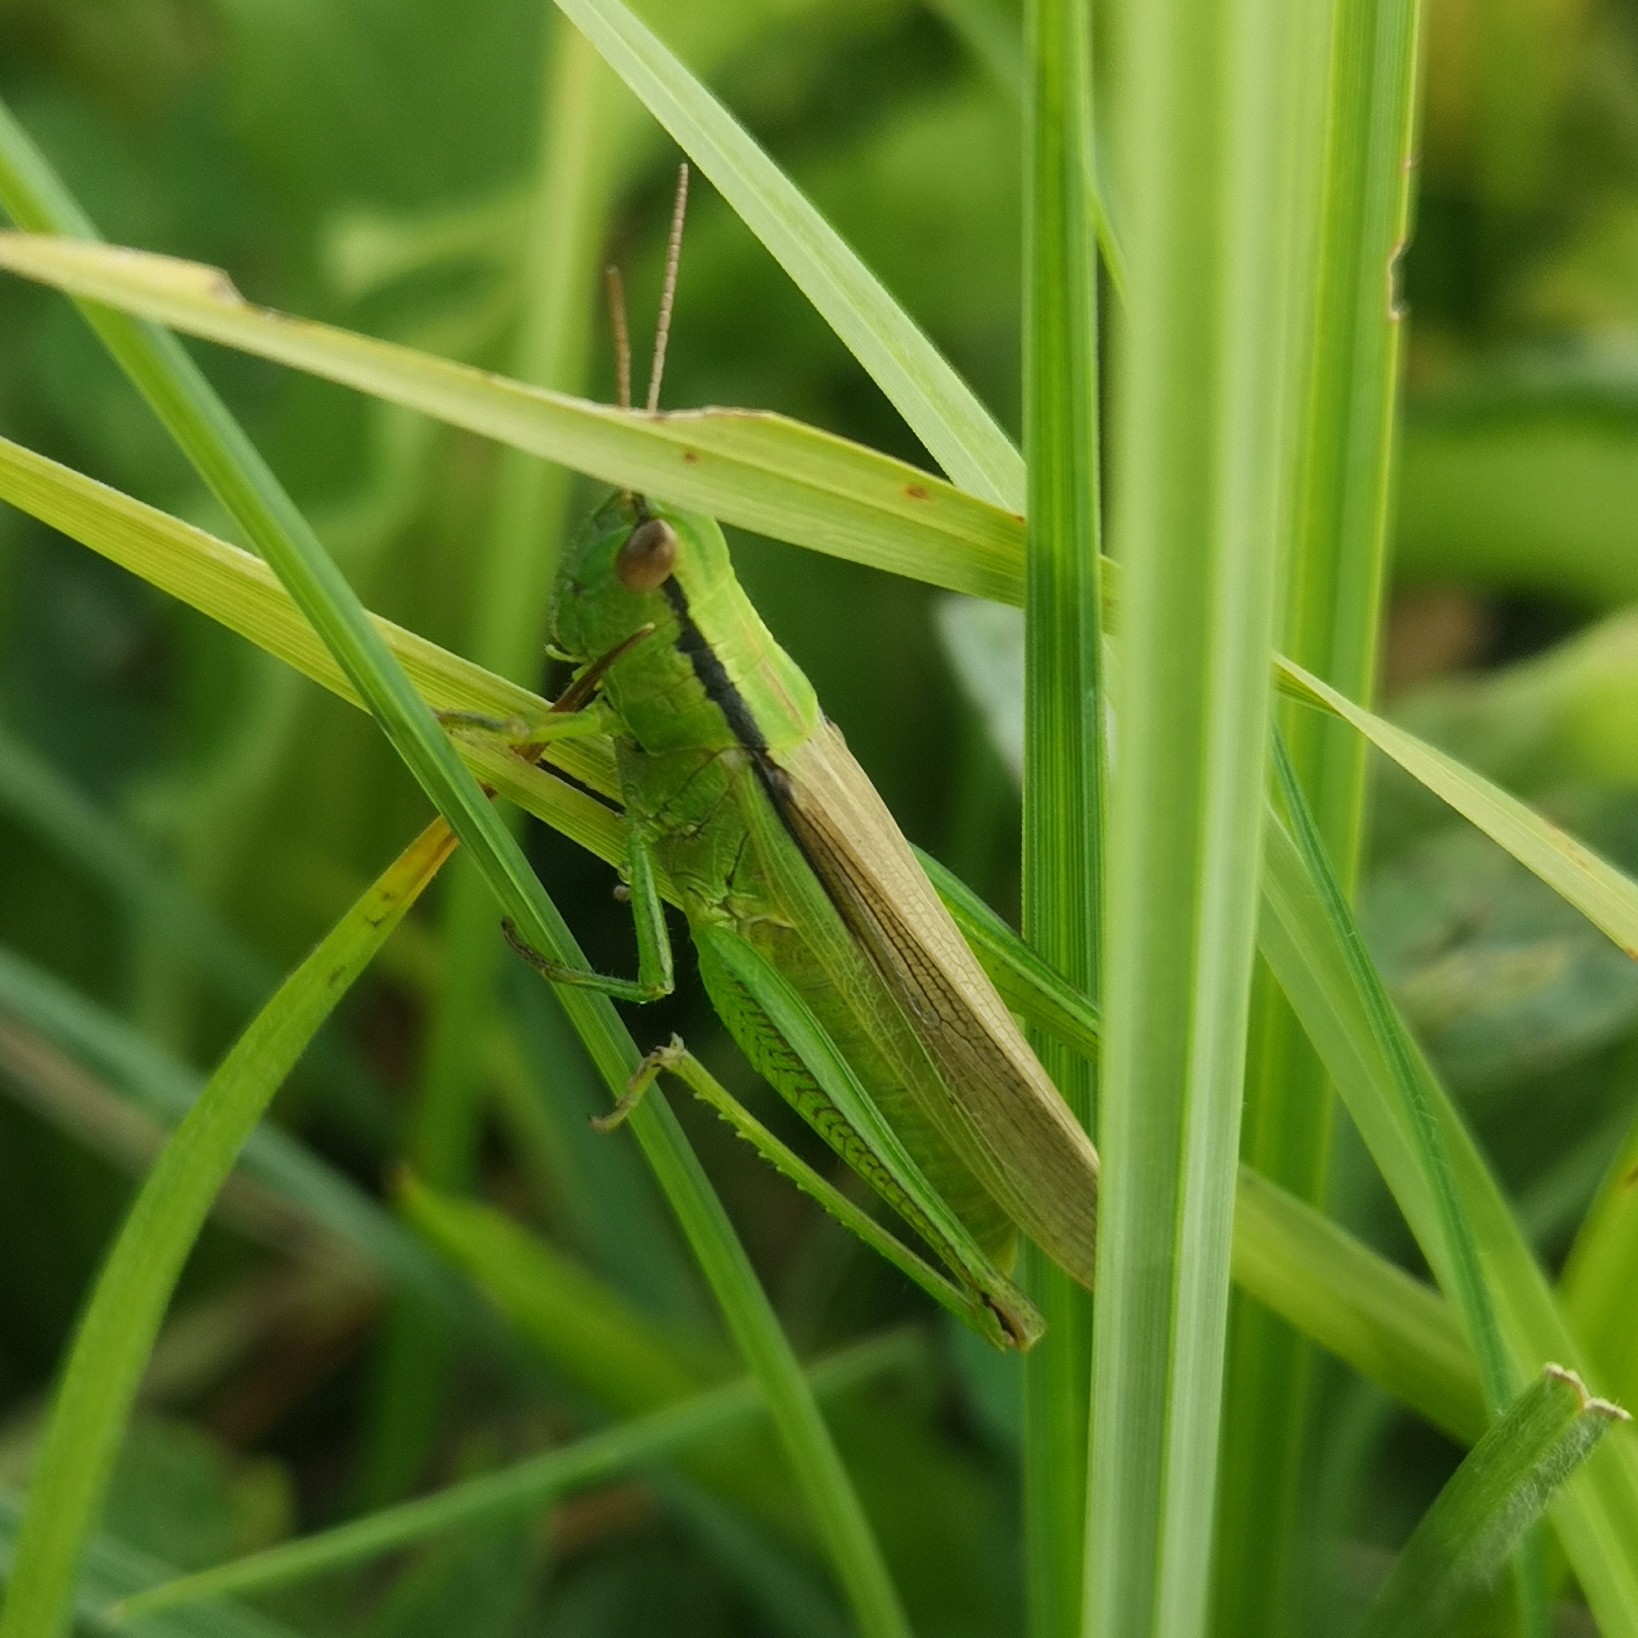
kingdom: Animalia
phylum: Arthropoda
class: Insecta
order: Orthoptera
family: Acrididae
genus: Mecostethus
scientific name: Mecostethus parapleurus
